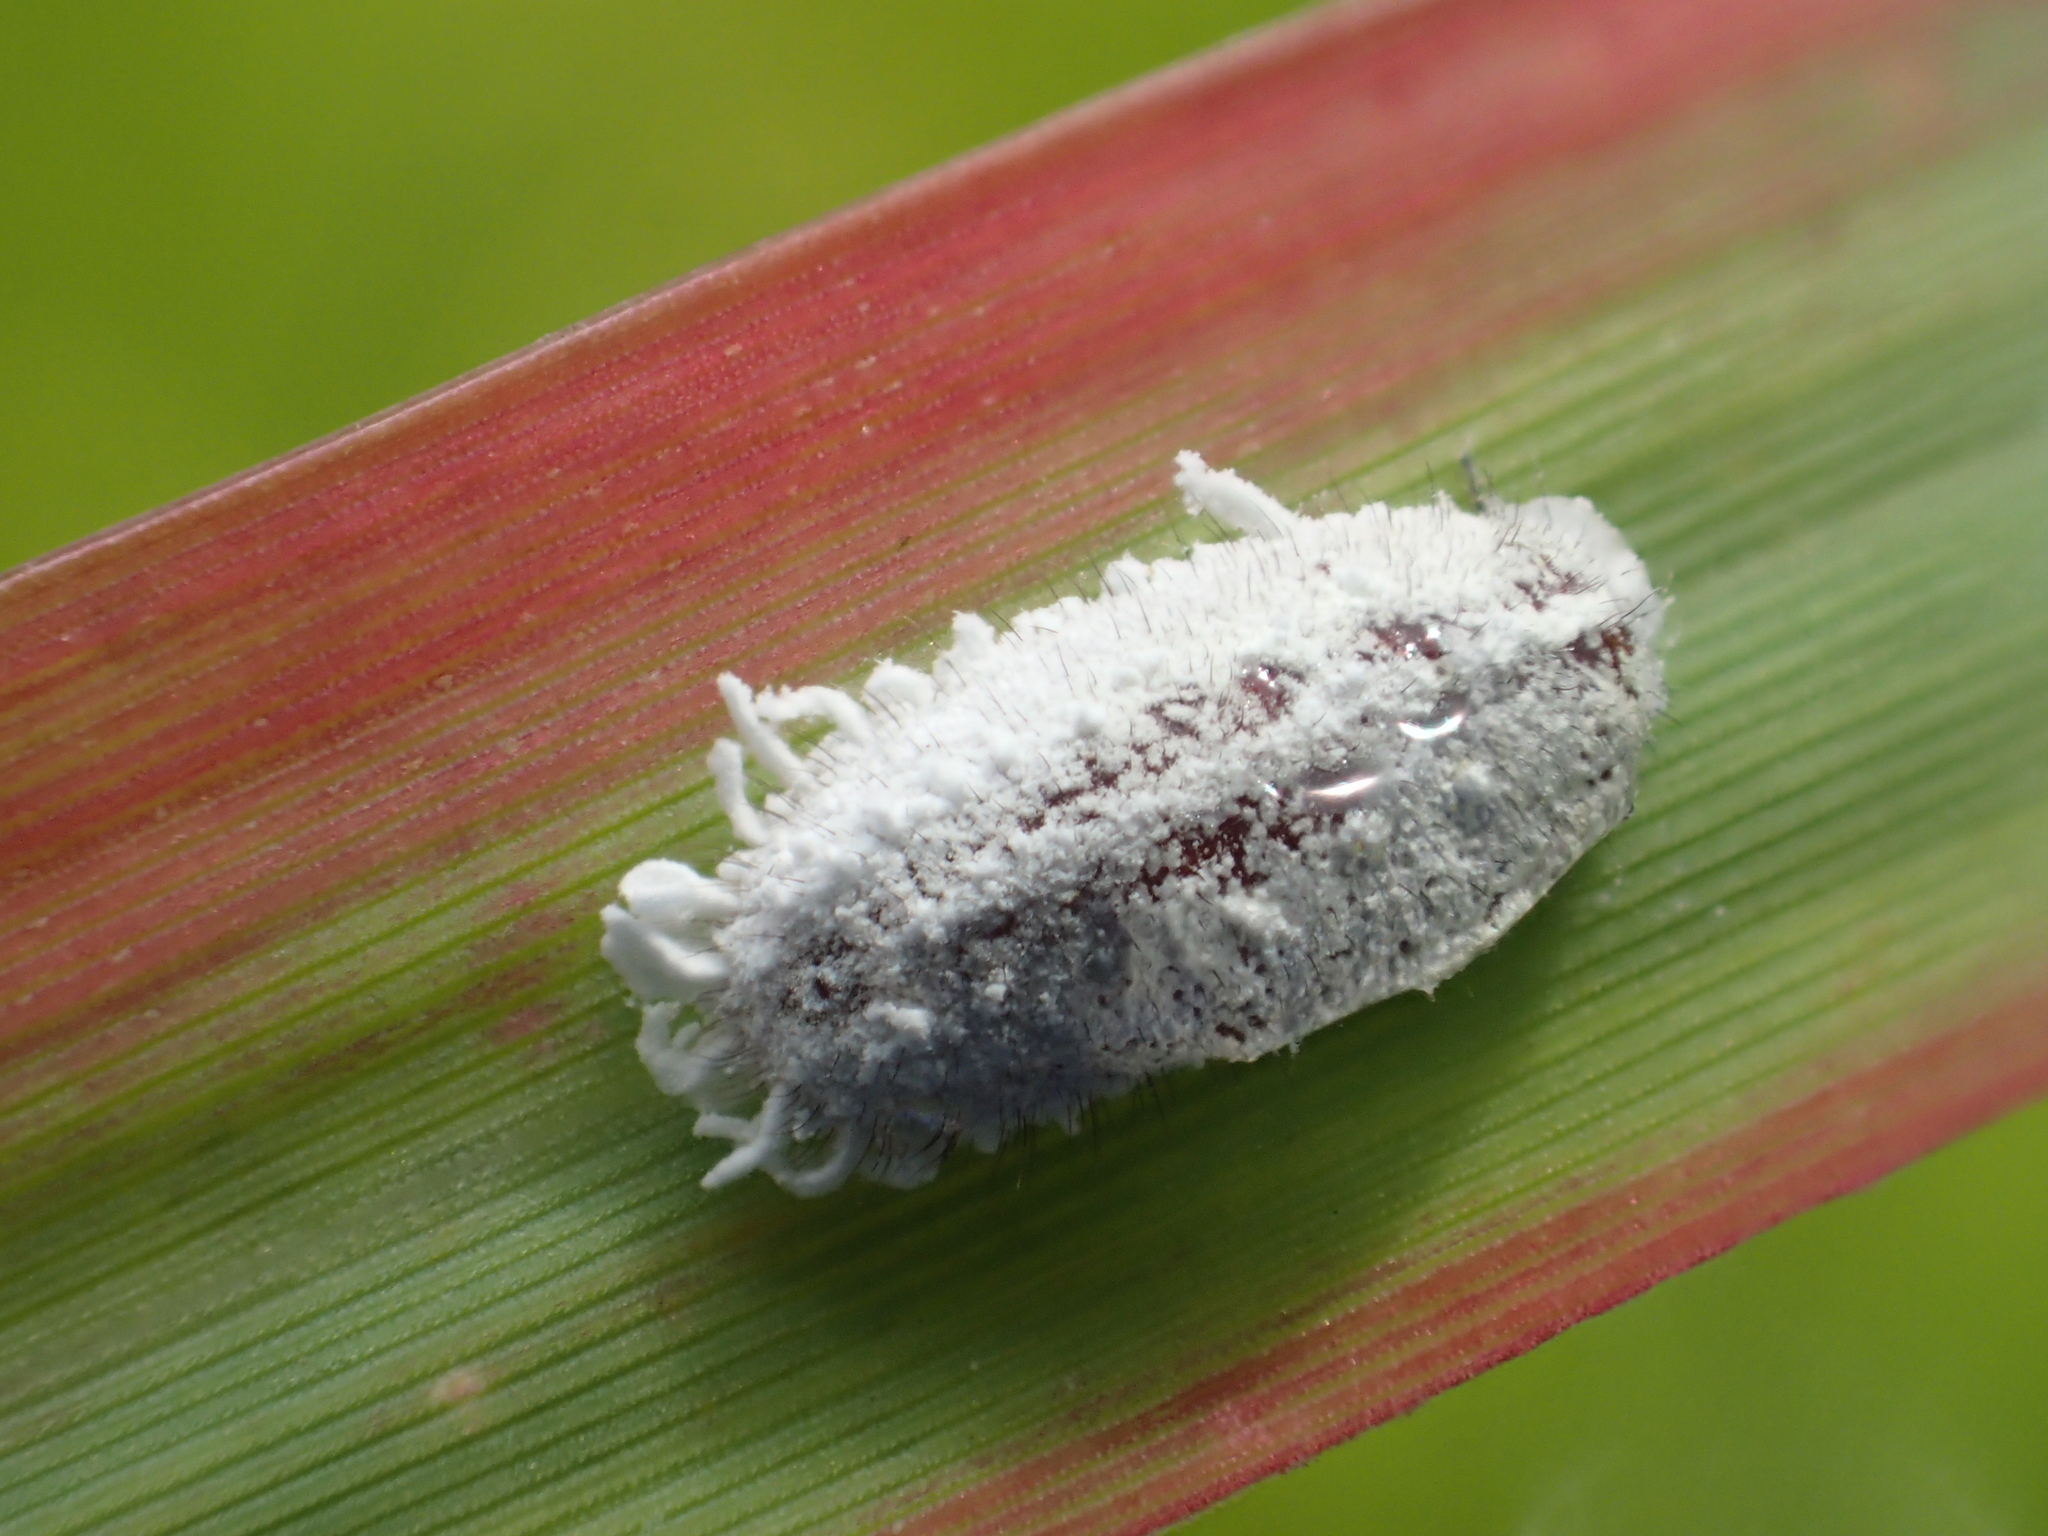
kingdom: Animalia
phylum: Arthropoda
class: Insecta
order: Hemiptera
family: Pseudococcidae
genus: Pseudococcus
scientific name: Pseudococcus comstocki
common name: Comstock mealybug
